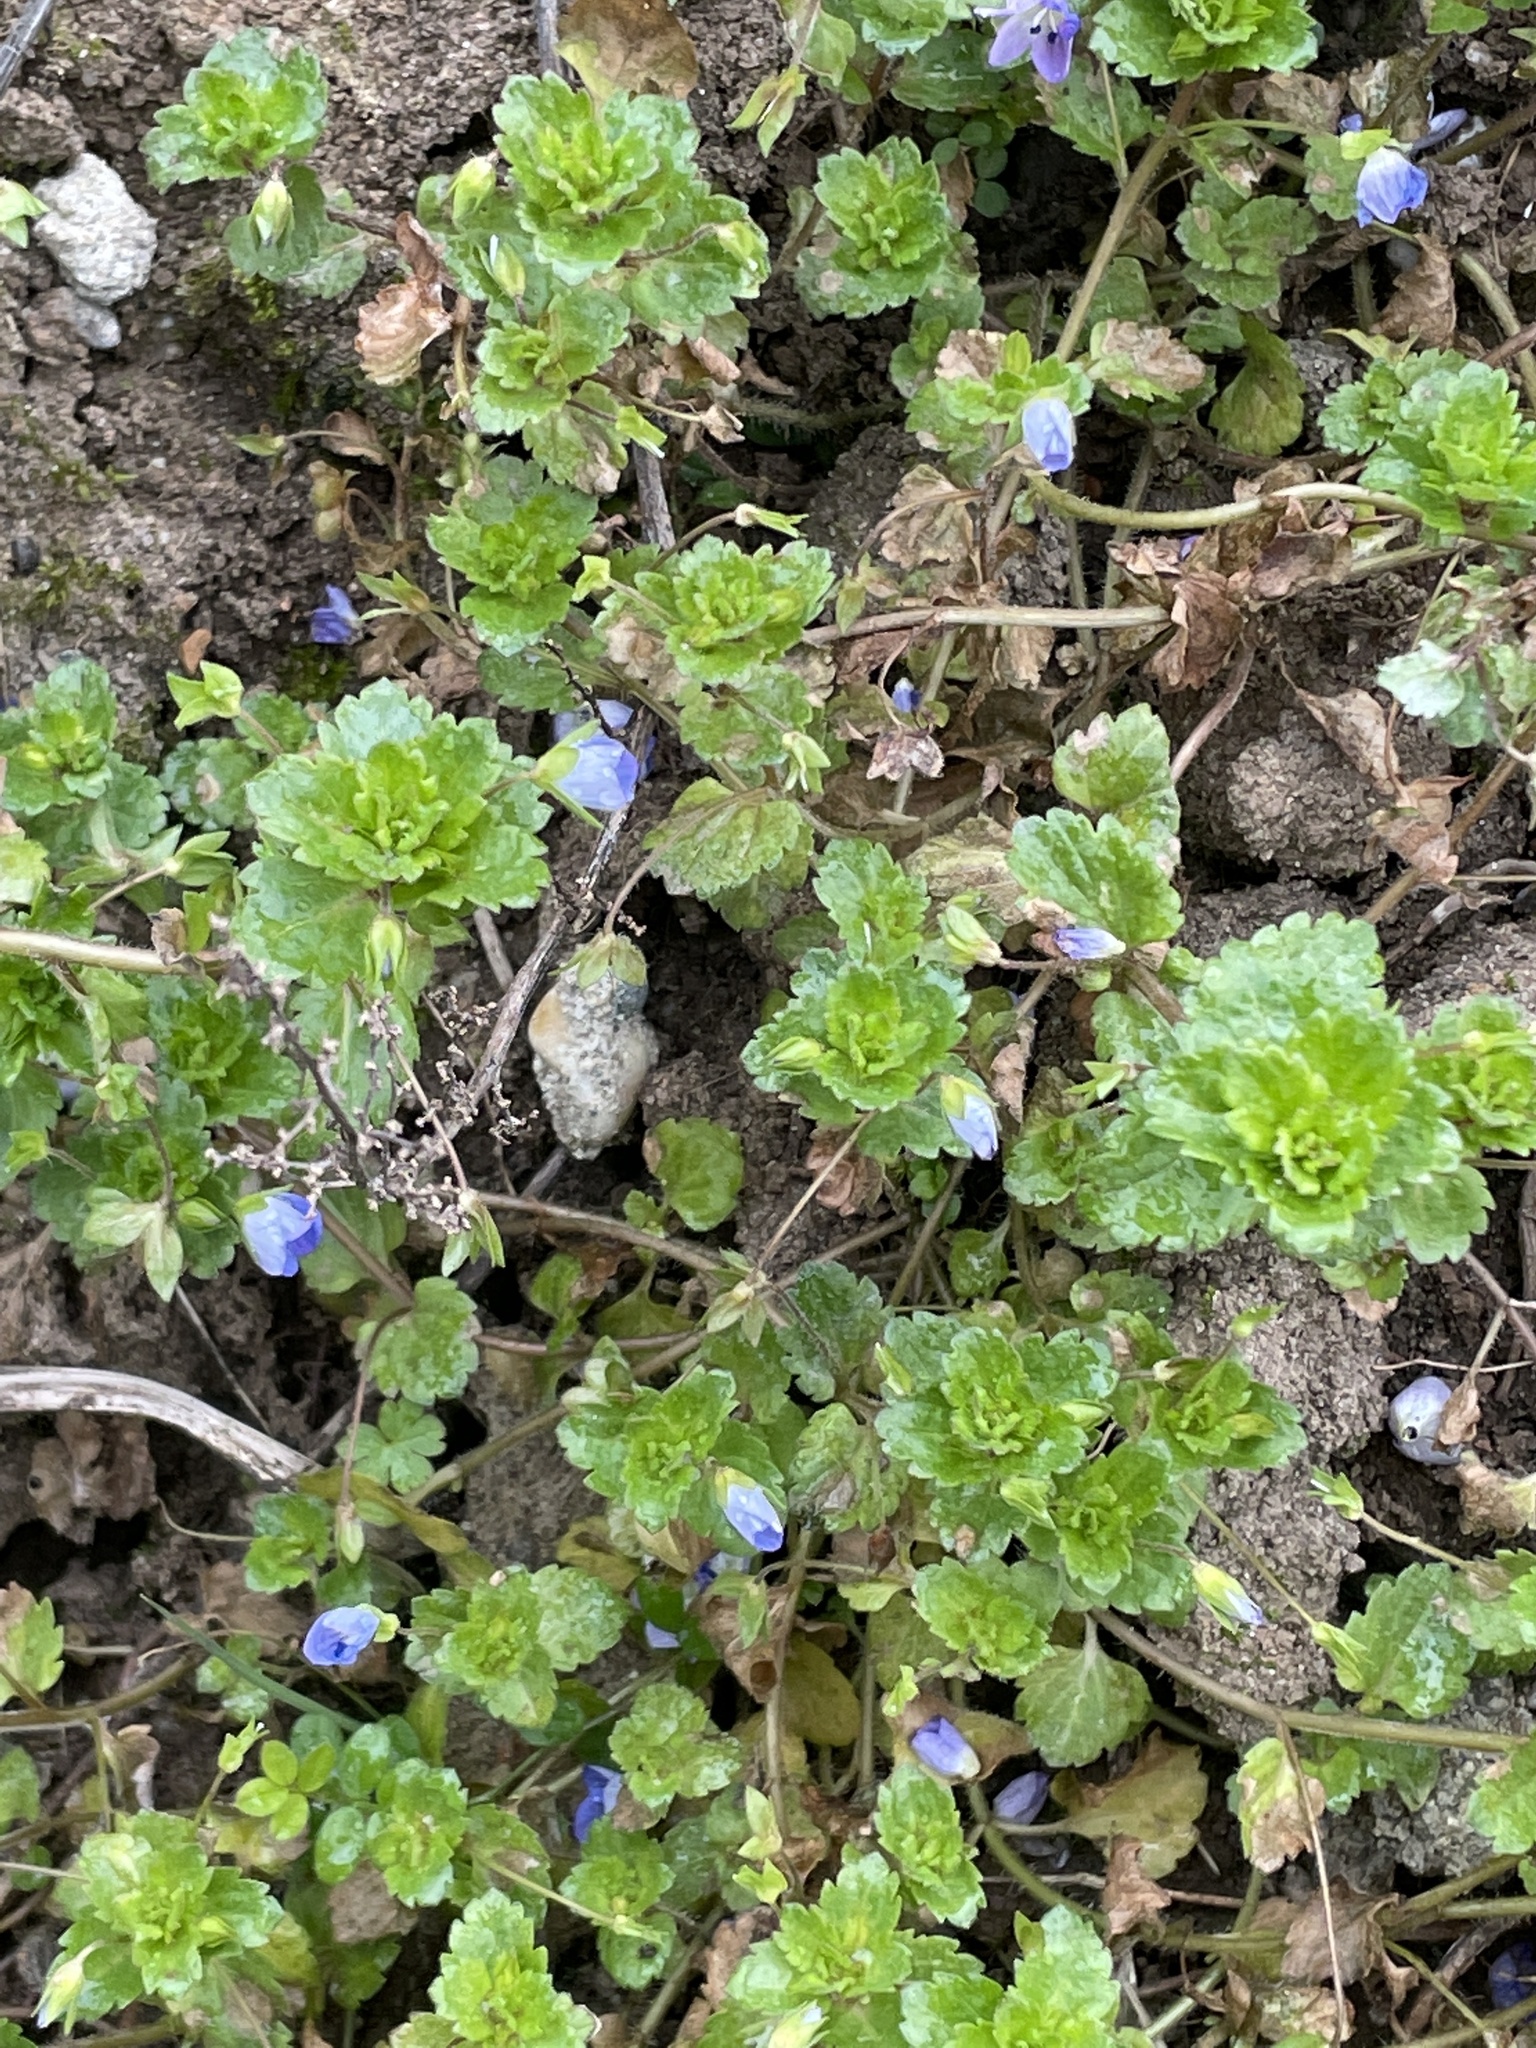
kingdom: Plantae
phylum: Tracheophyta
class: Magnoliopsida
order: Lamiales
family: Plantaginaceae
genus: Veronica
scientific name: Veronica persica
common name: Common field-speedwell
